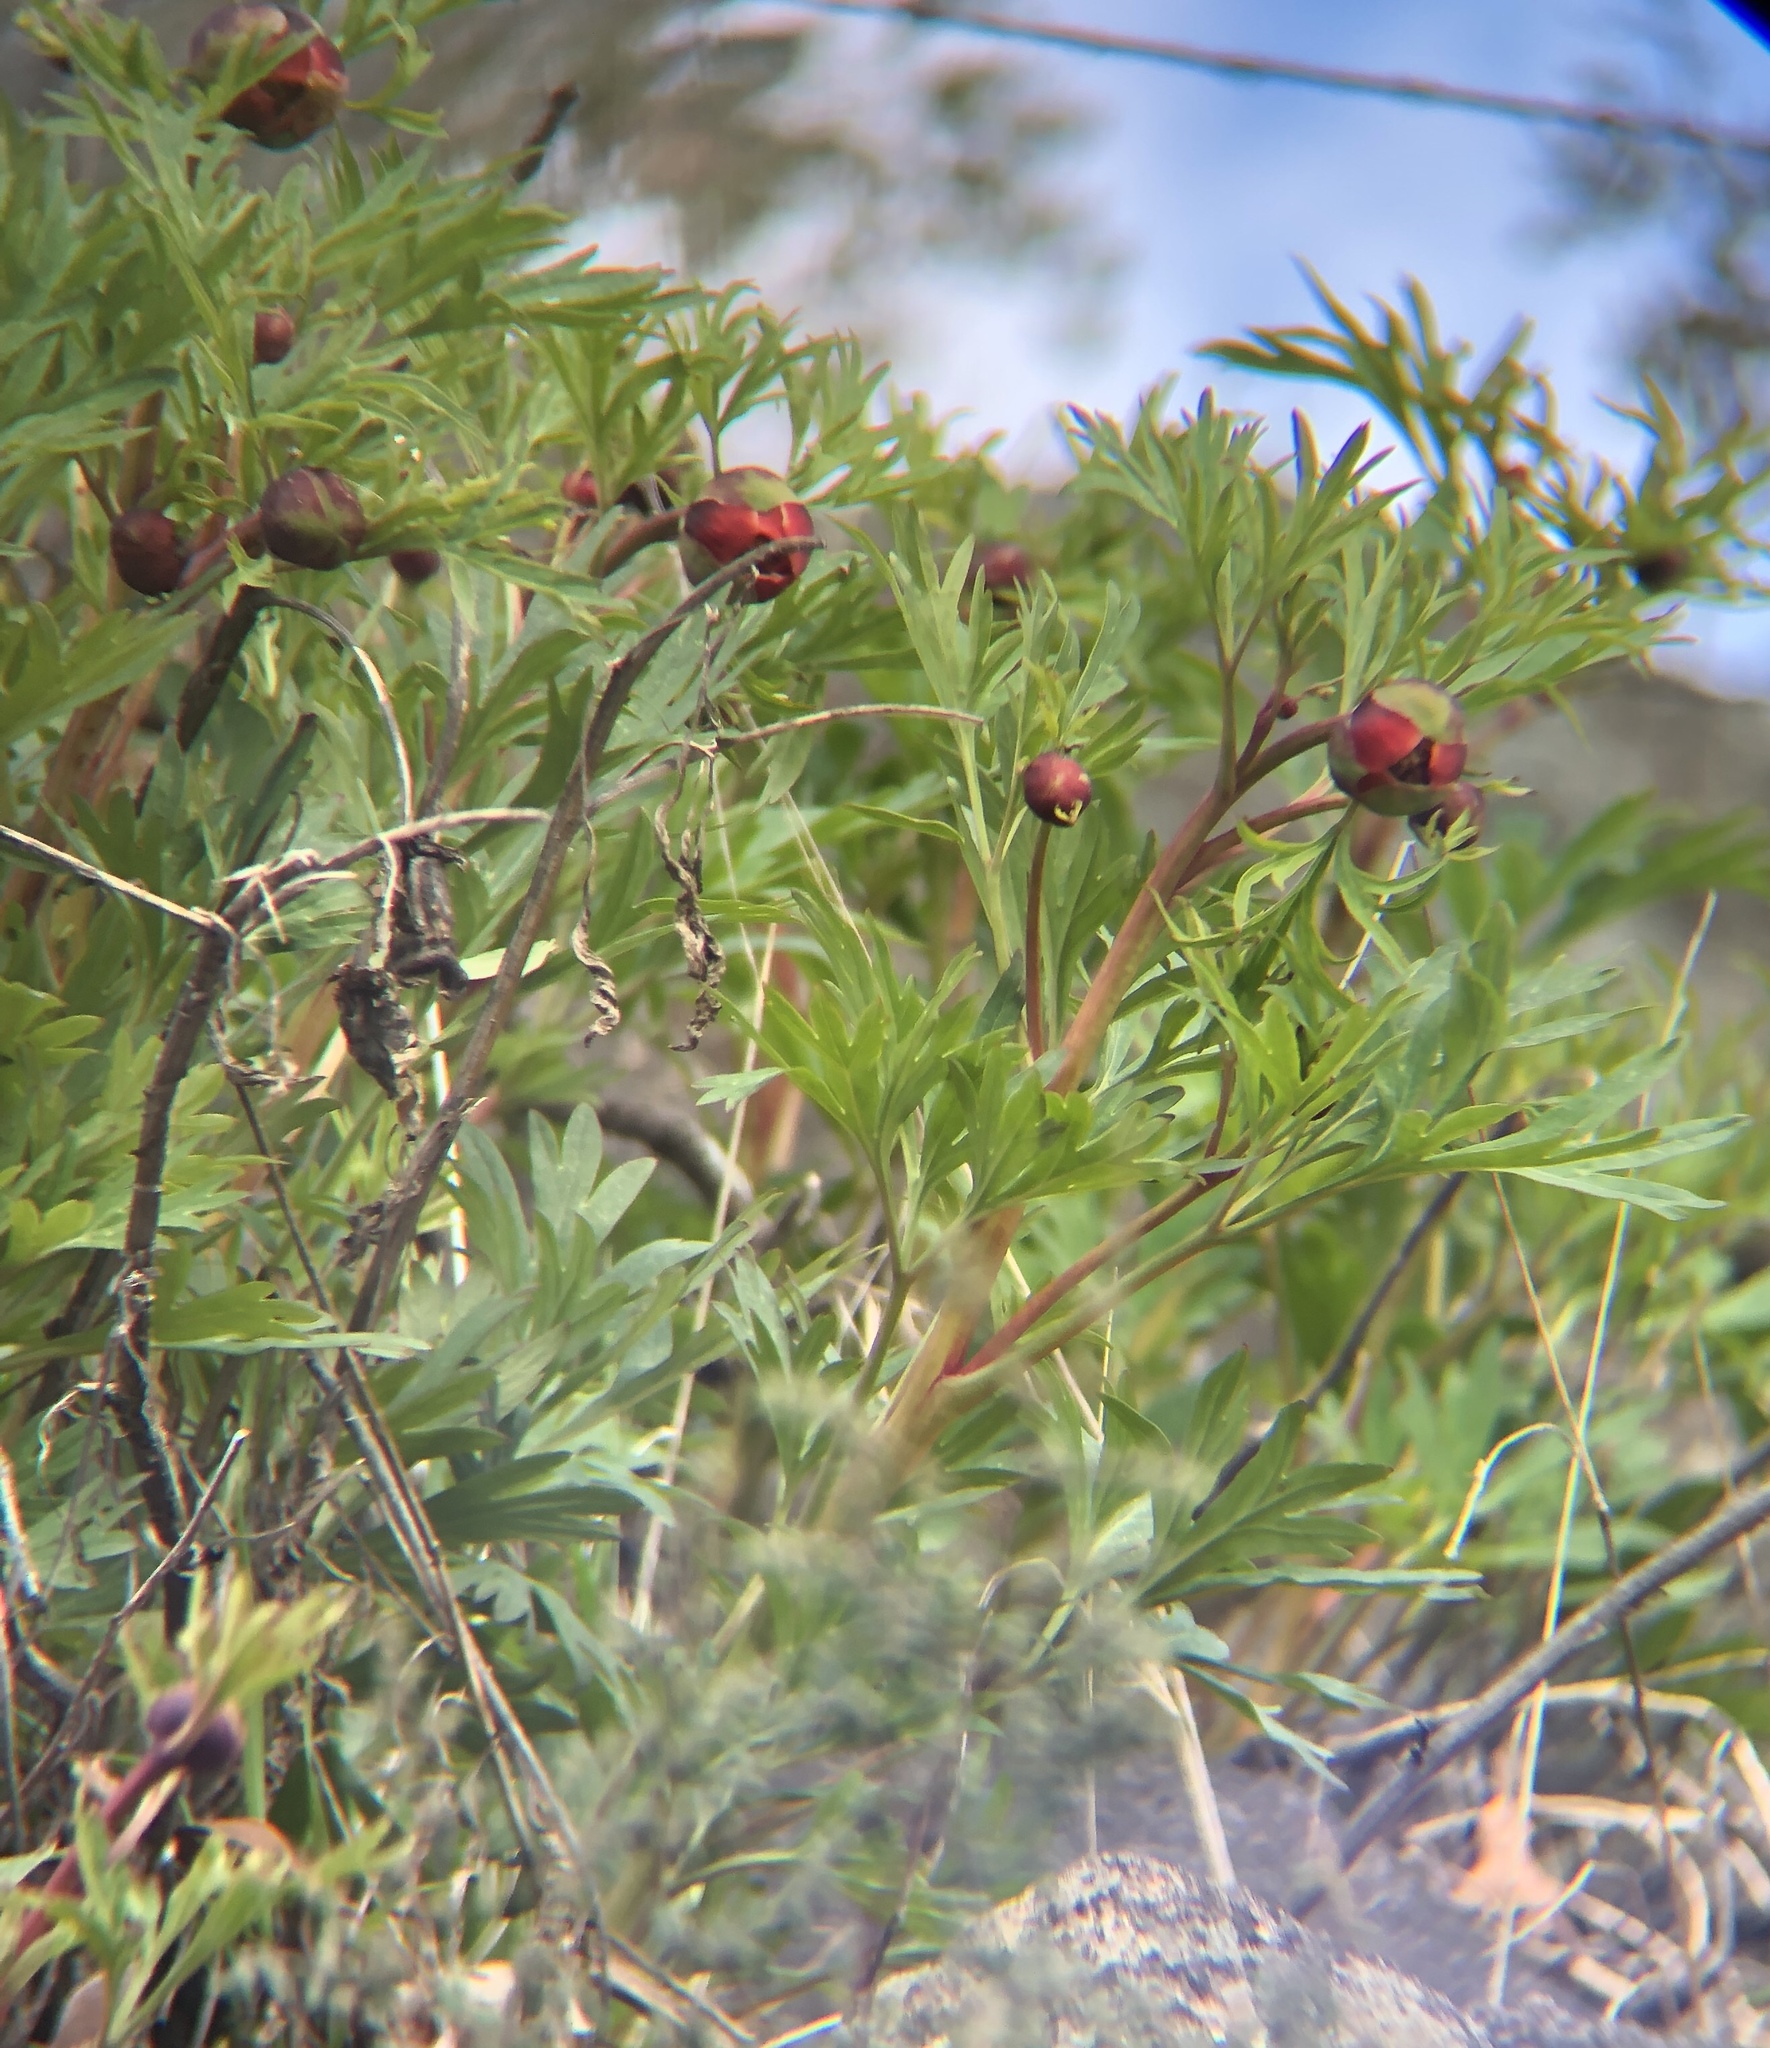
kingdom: Plantae
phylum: Tracheophyta
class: Magnoliopsida
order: Saxifragales
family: Paeoniaceae
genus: Paeonia
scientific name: Paeonia californica
